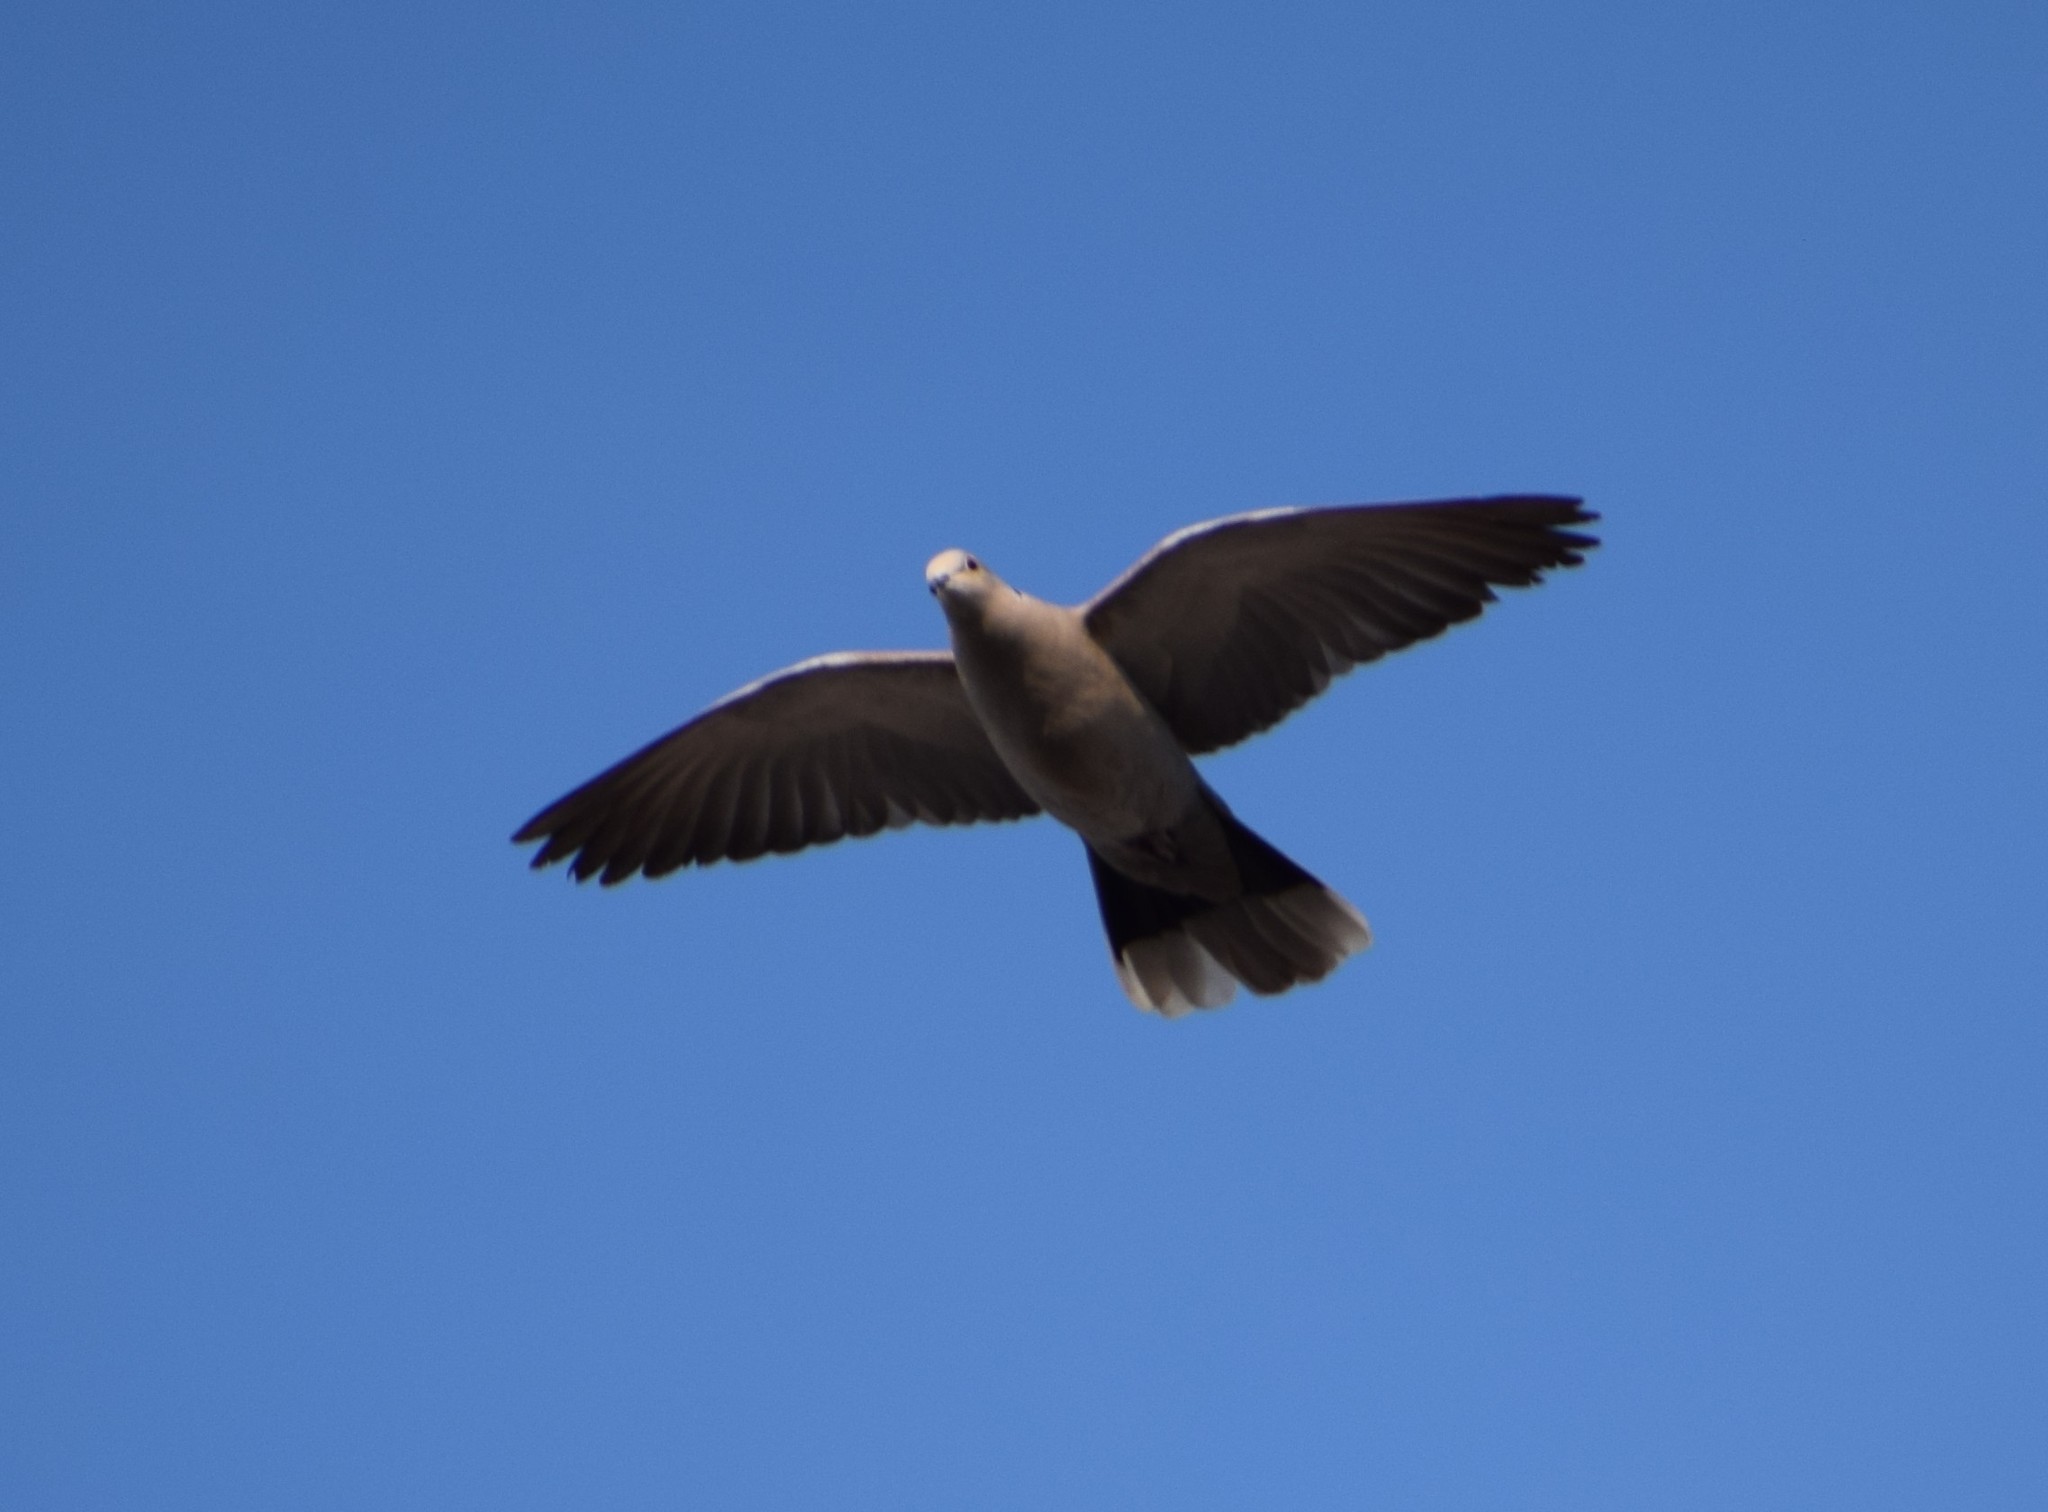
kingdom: Animalia
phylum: Chordata
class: Aves
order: Columbiformes
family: Columbidae
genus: Streptopelia
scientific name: Streptopelia decaocto
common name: Eurasian collared dove
